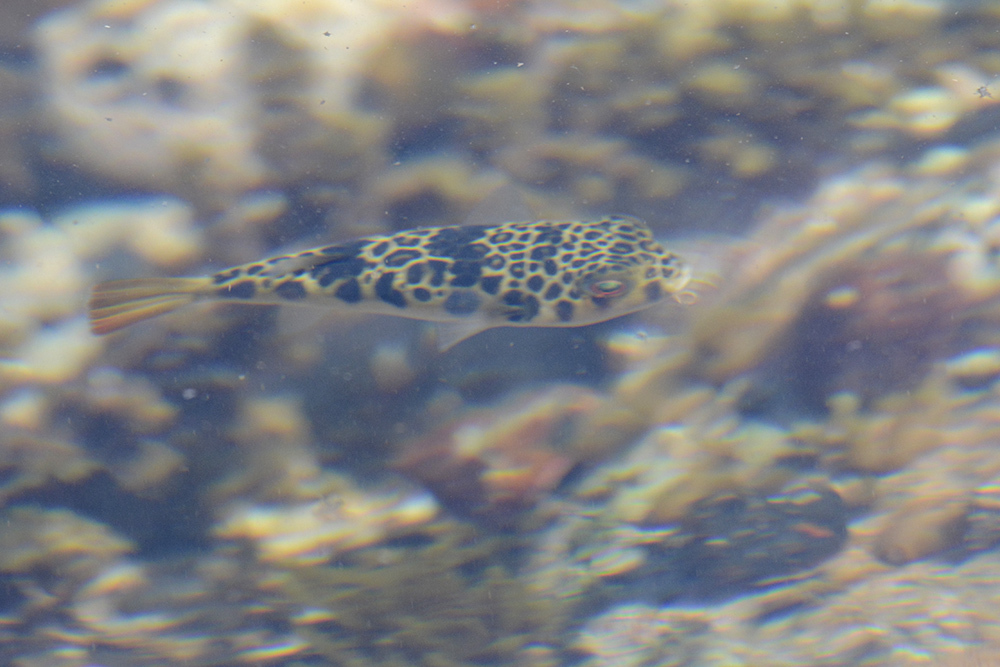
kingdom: Animalia
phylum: Chordata
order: Tetraodontiformes
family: Tetraodontidae
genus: Tetractenos
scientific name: Tetractenos glaber
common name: Smooth toadfish
